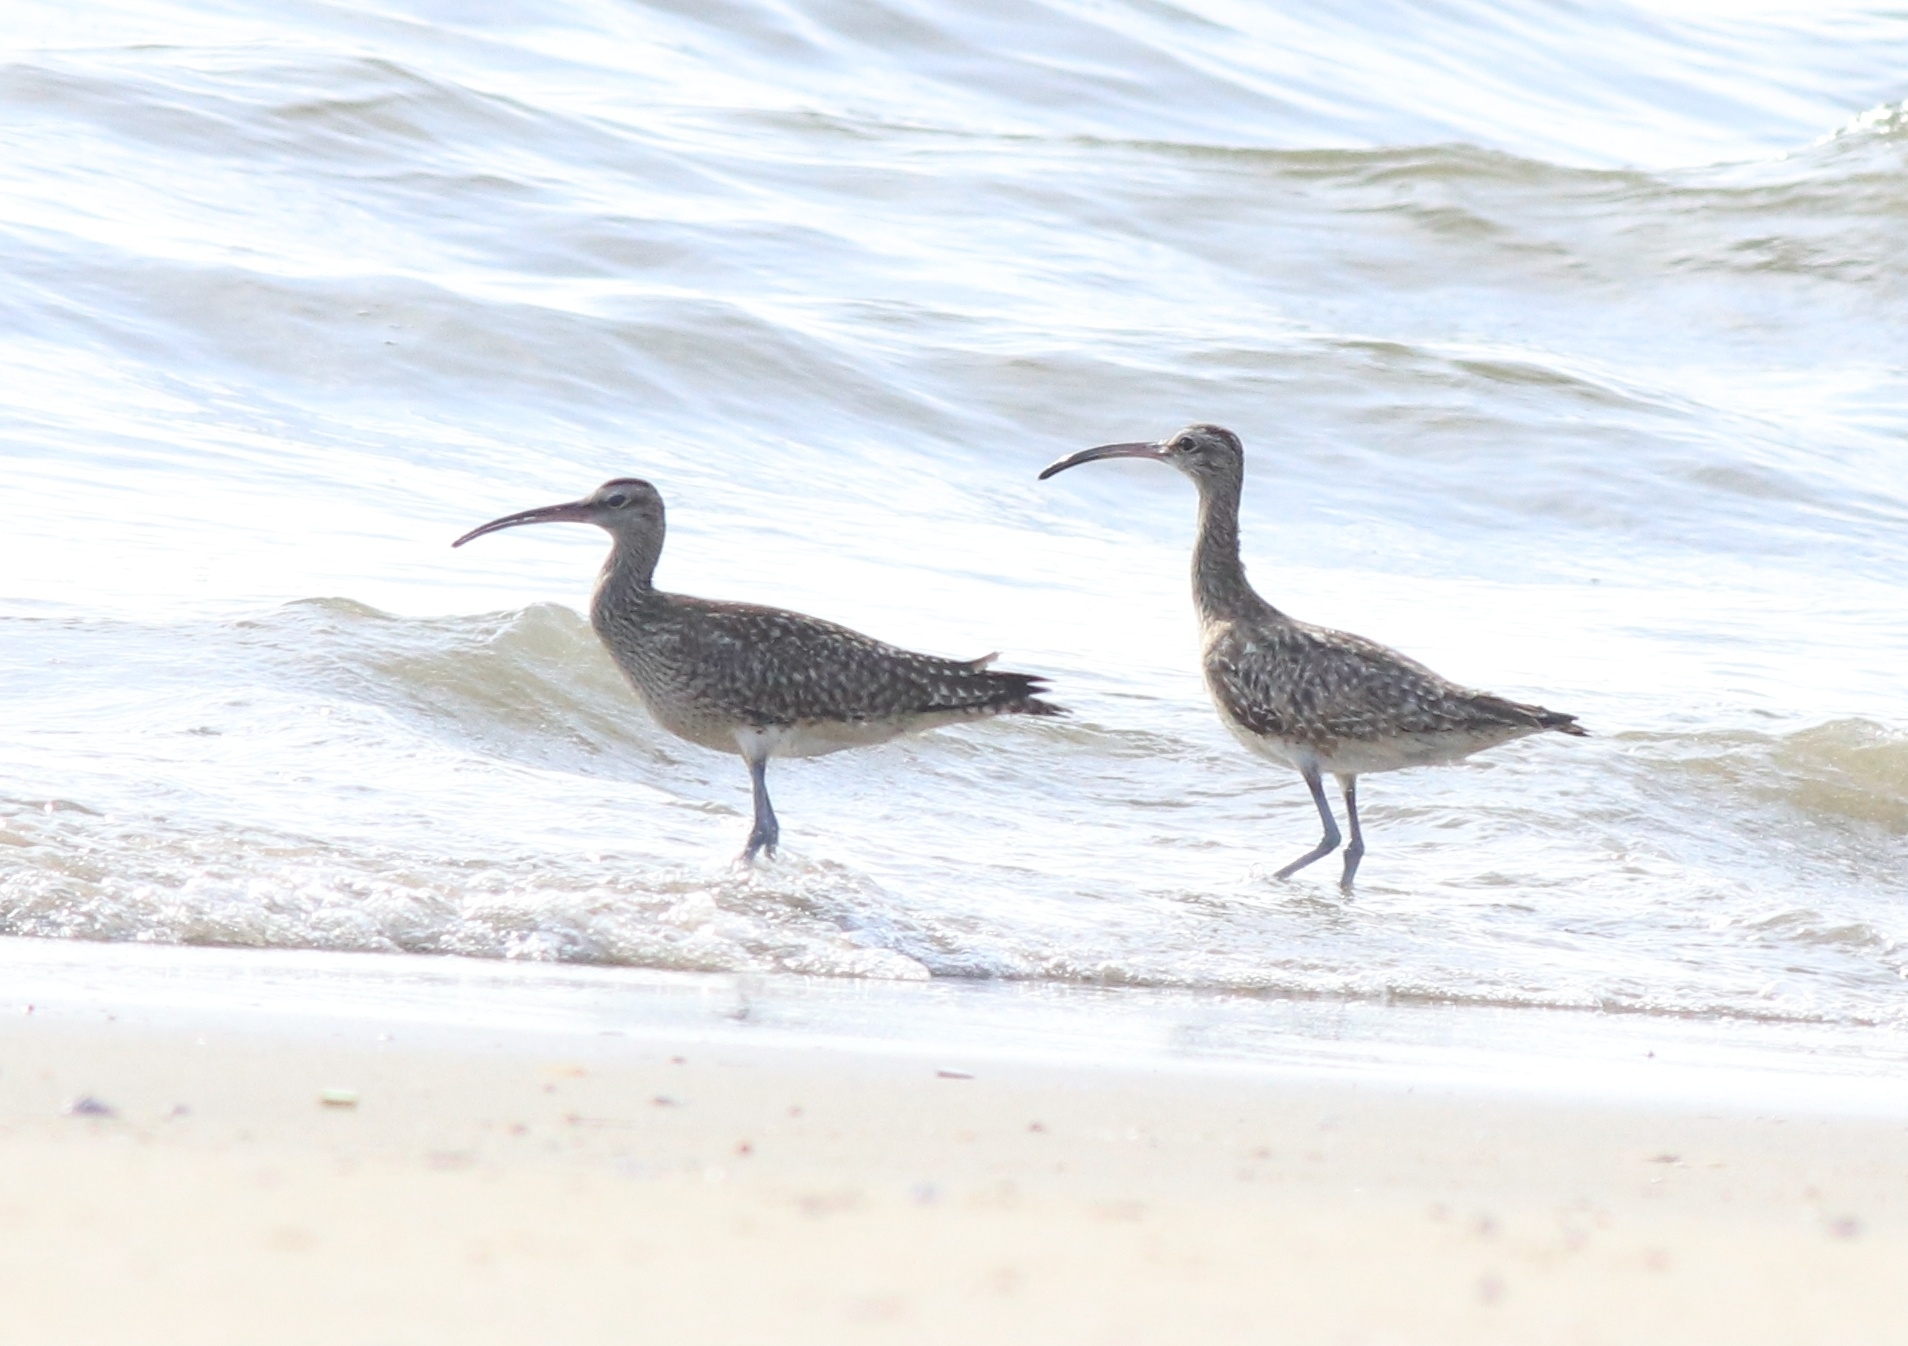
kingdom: Animalia
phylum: Chordata
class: Aves
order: Charadriiformes
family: Scolopacidae
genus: Numenius
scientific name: Numenius phaeopus
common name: Whimbrel
